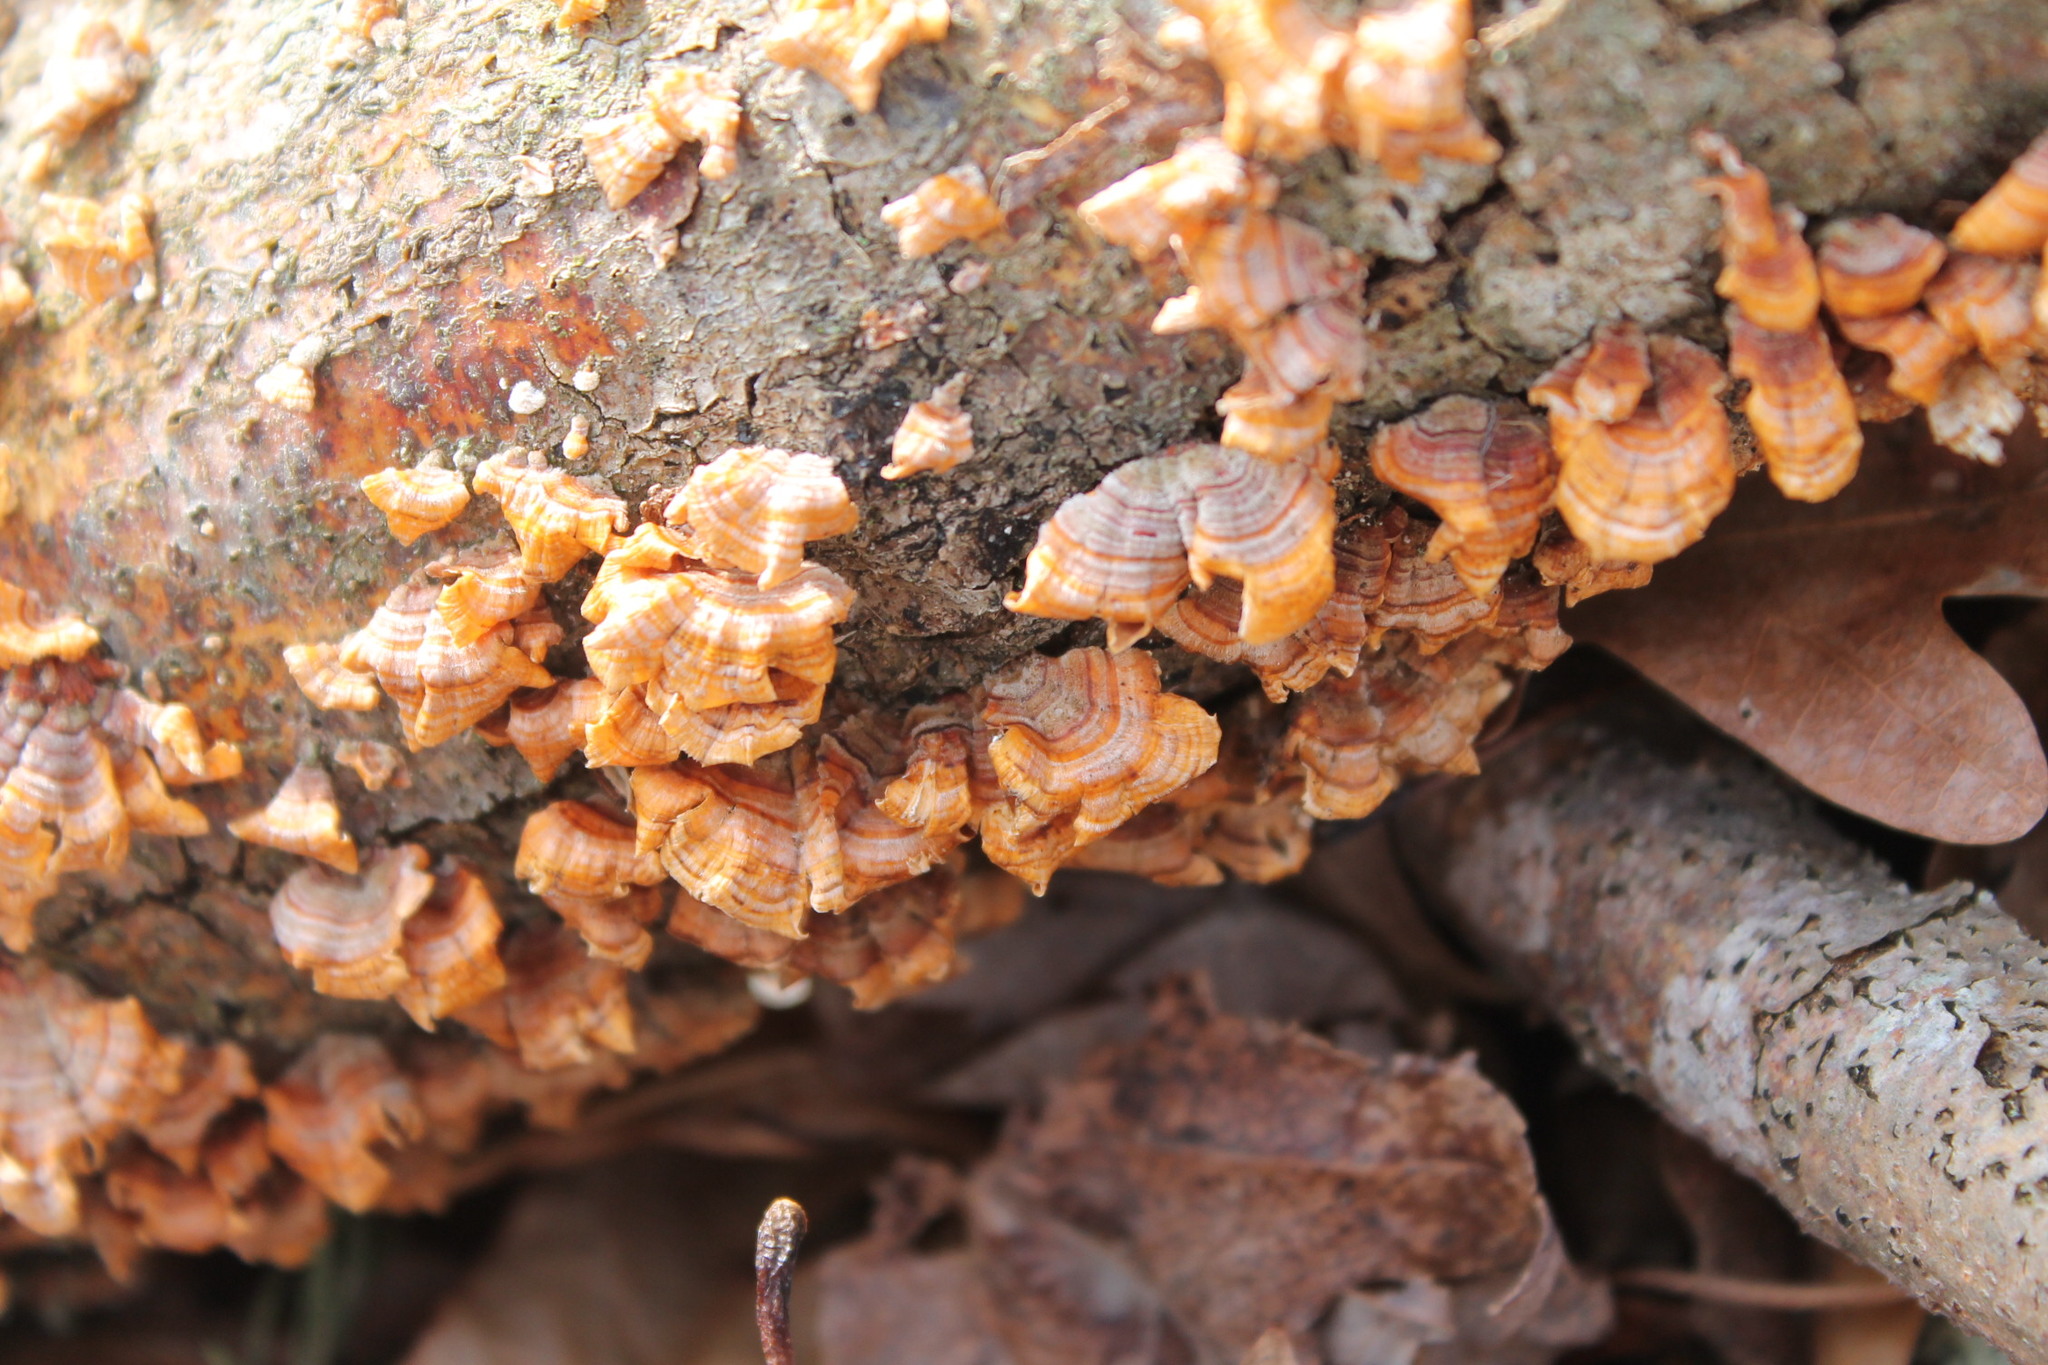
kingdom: Fungi
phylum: Basidiomycota
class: Agaricomycetes
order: Russulales
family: Stereaceae
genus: Stereum
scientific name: Stereum complicatum
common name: Crowded parchment
